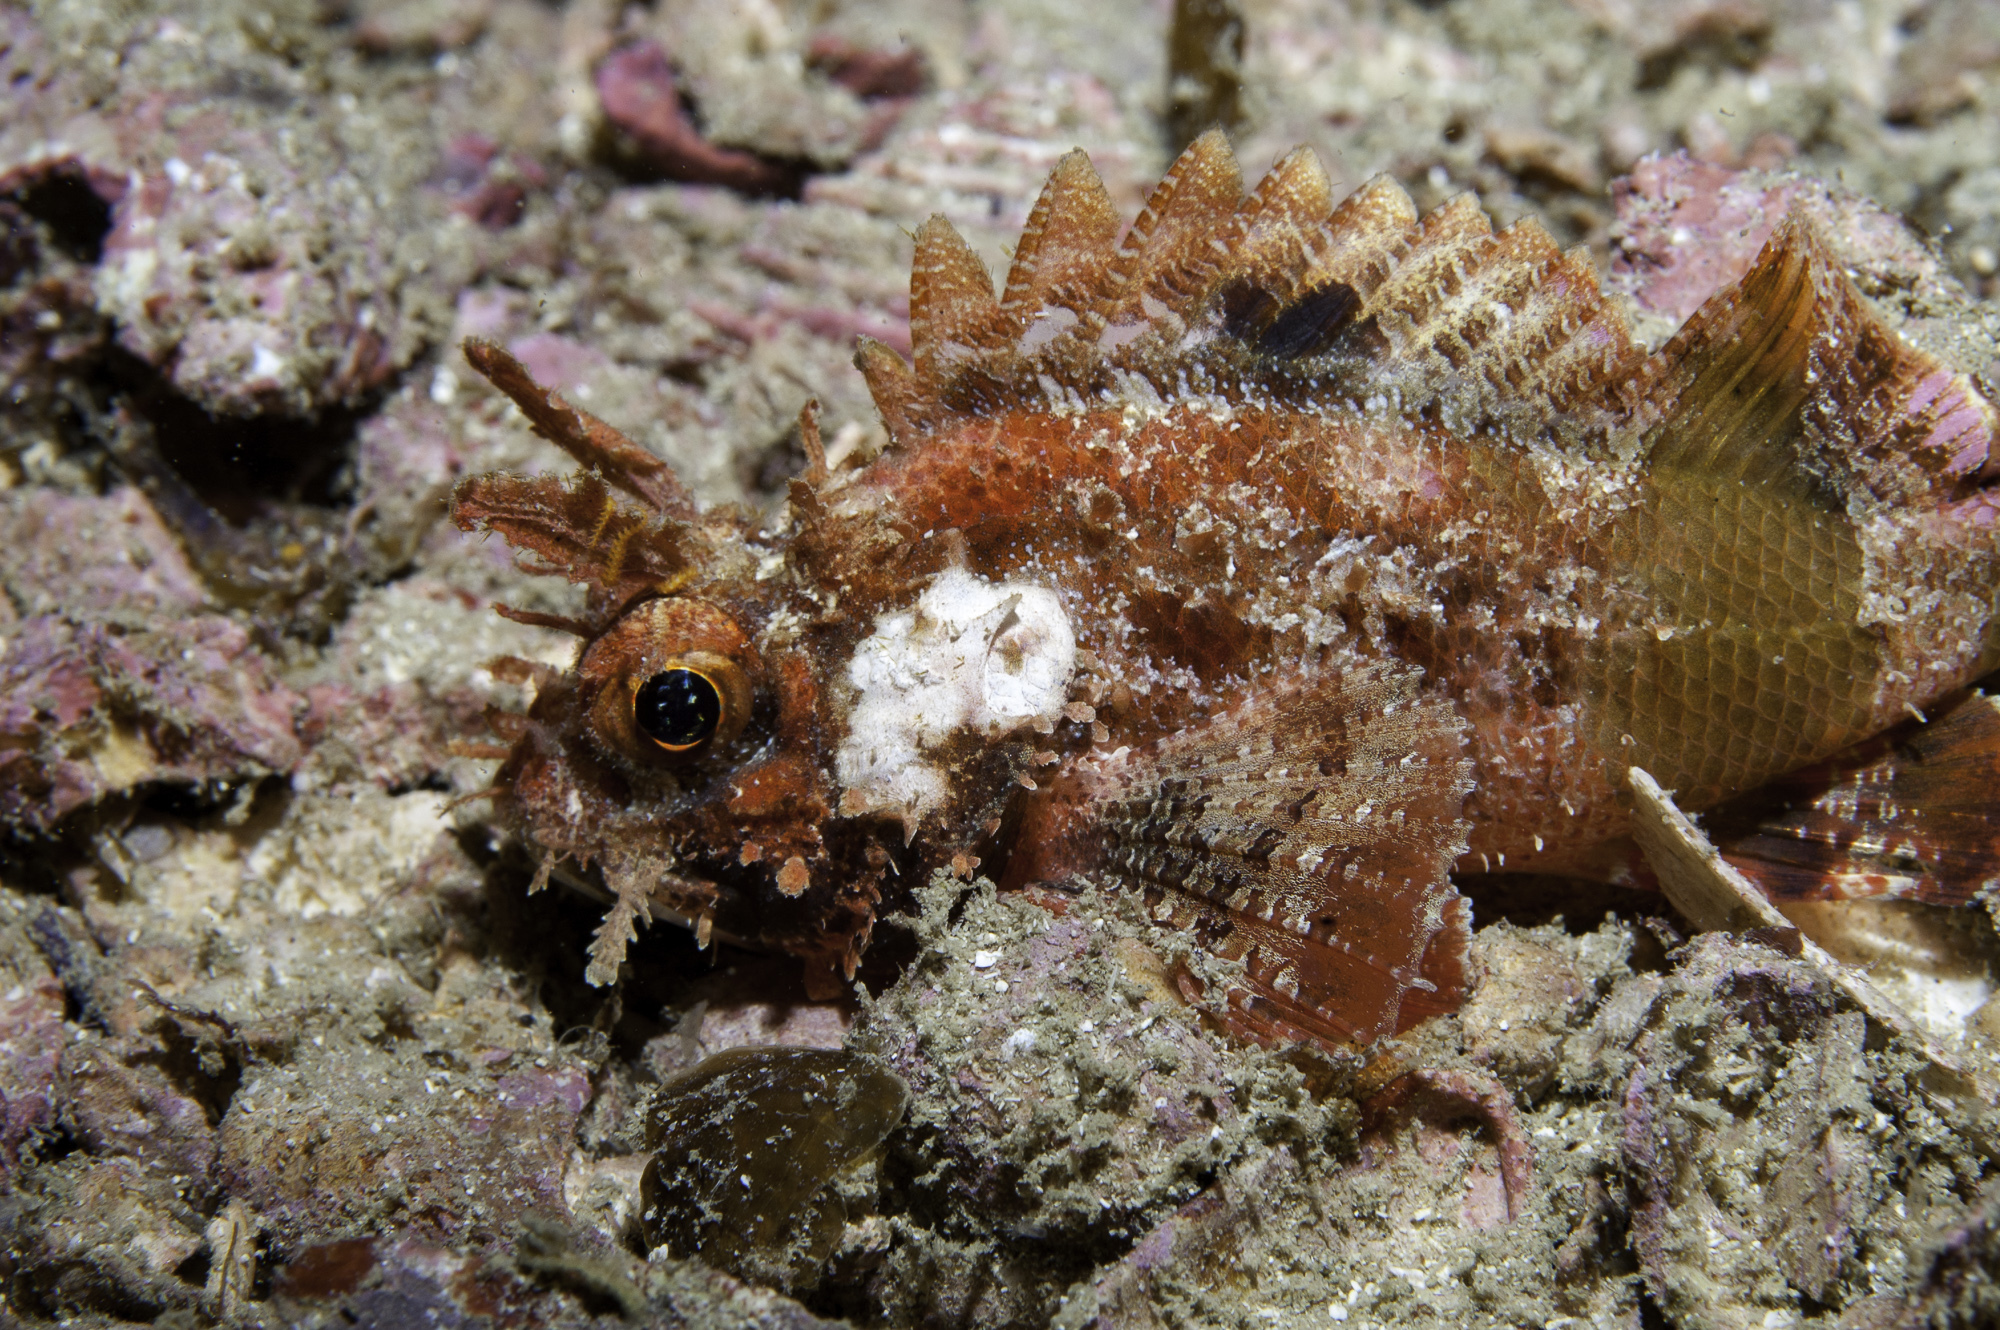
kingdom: Animalia
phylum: Chordata
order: Scorpaeniformes
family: Scorpaenidae
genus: Scorpaena
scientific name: Scorpaena bergii
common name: Goosehead scorpionfish
